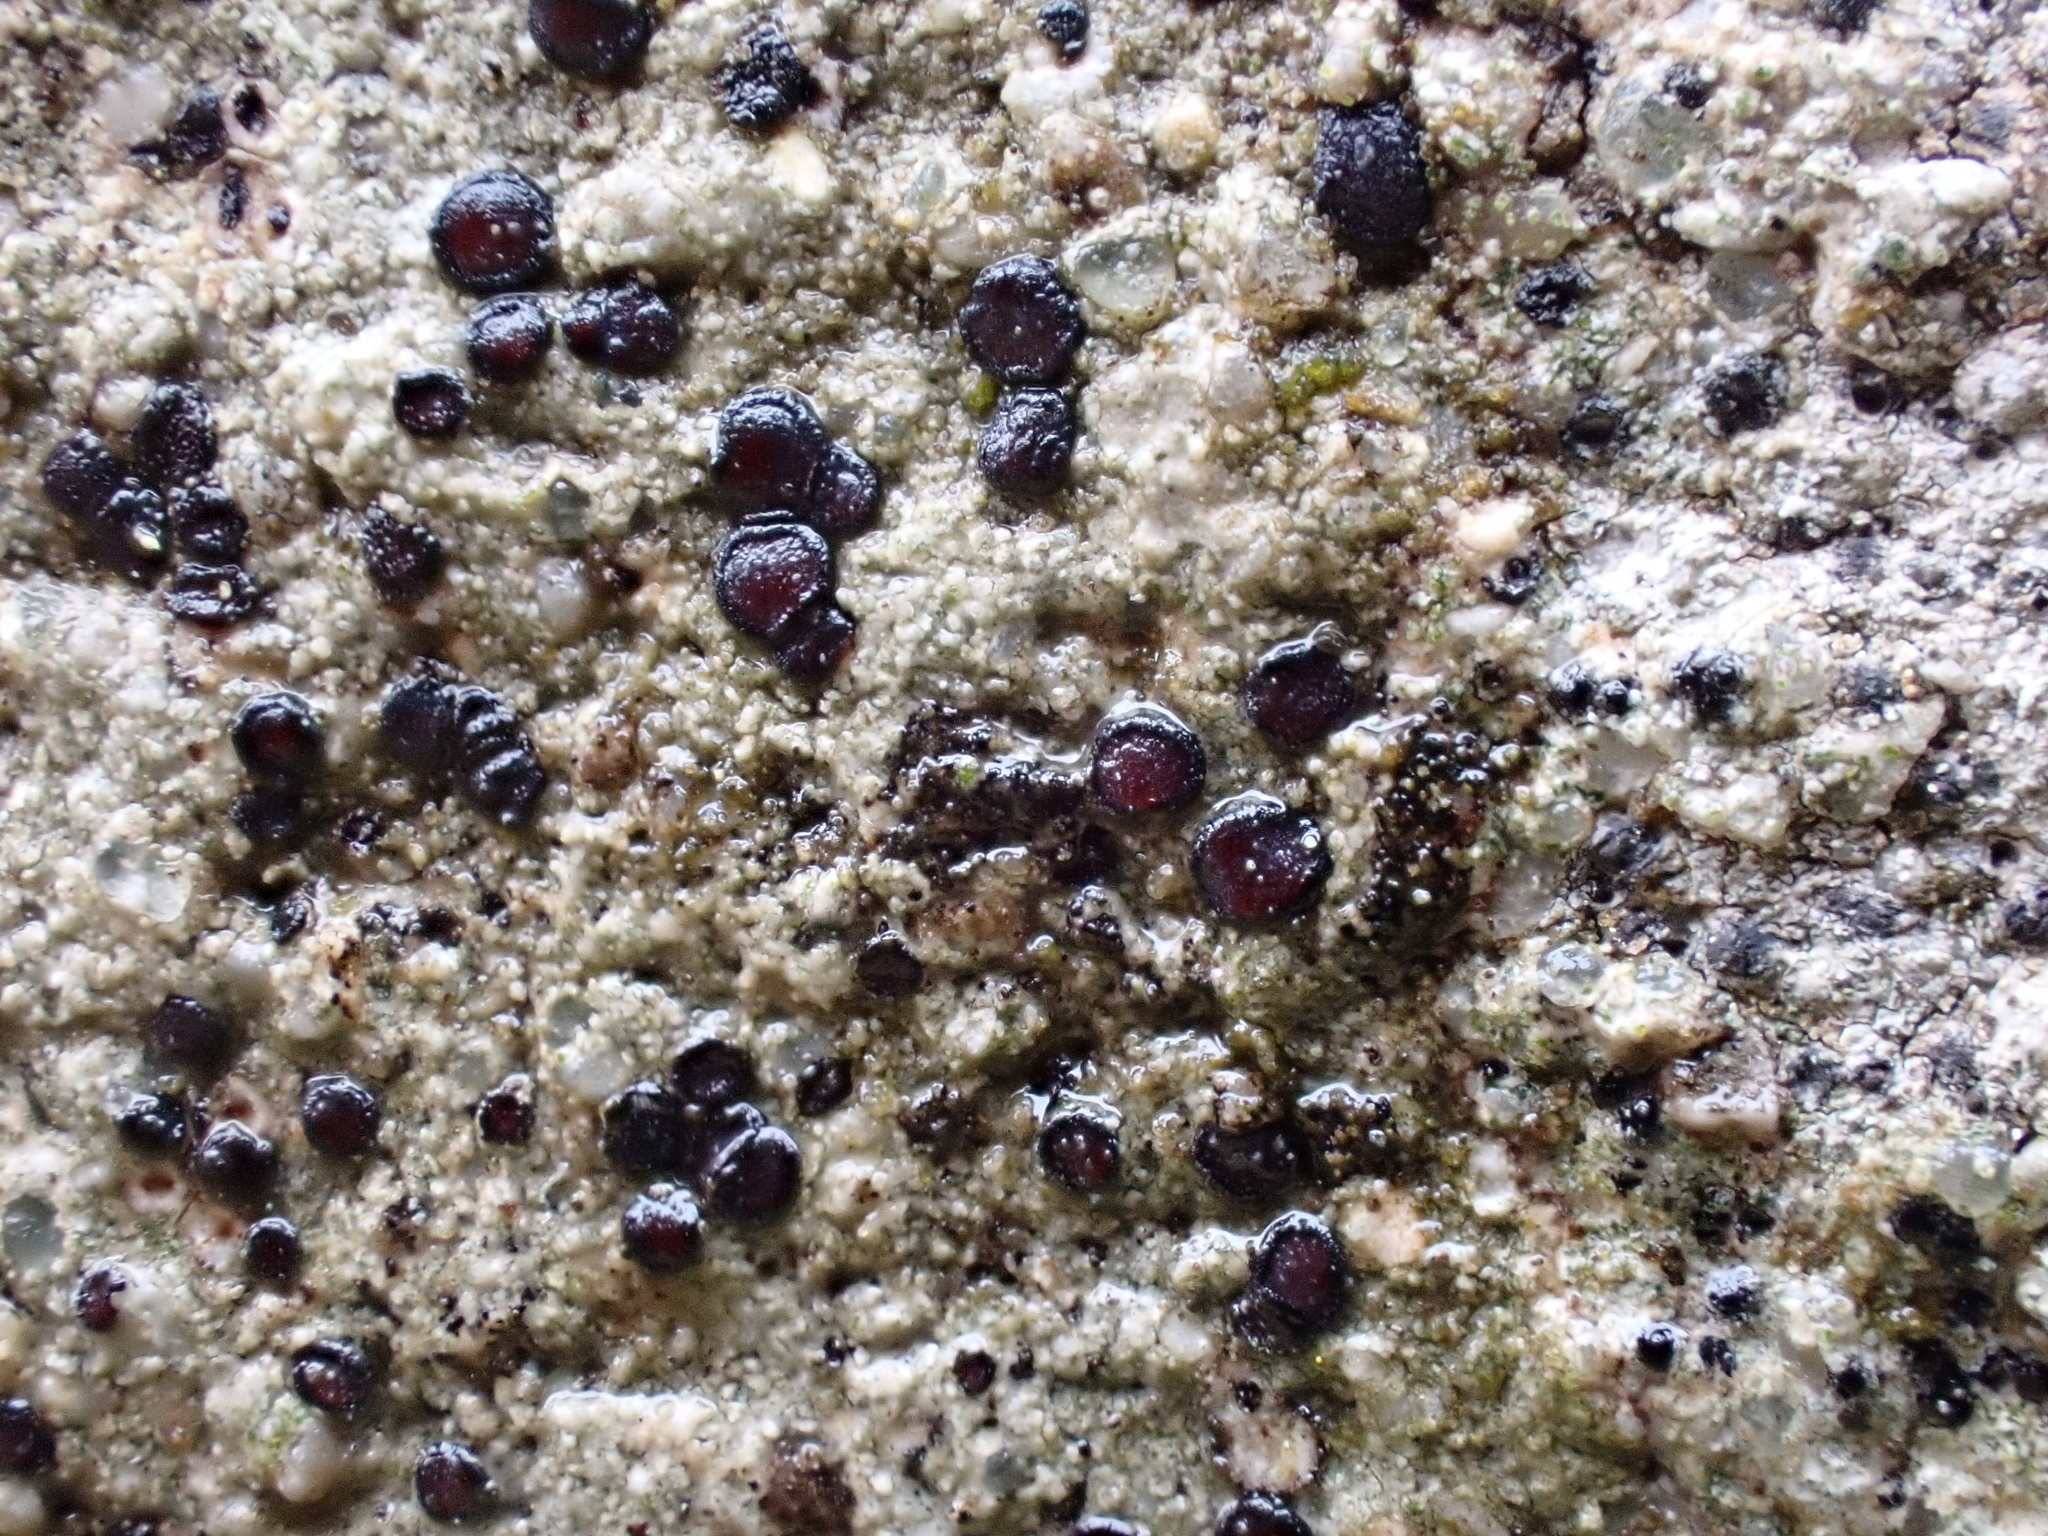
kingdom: Fungi
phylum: Ascomycota
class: Lecanoromycetes
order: Acarosporales
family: Acarosporaceae
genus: Sarcogyne
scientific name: Sarcogyne regularis
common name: Frosted grain-spored lichen
